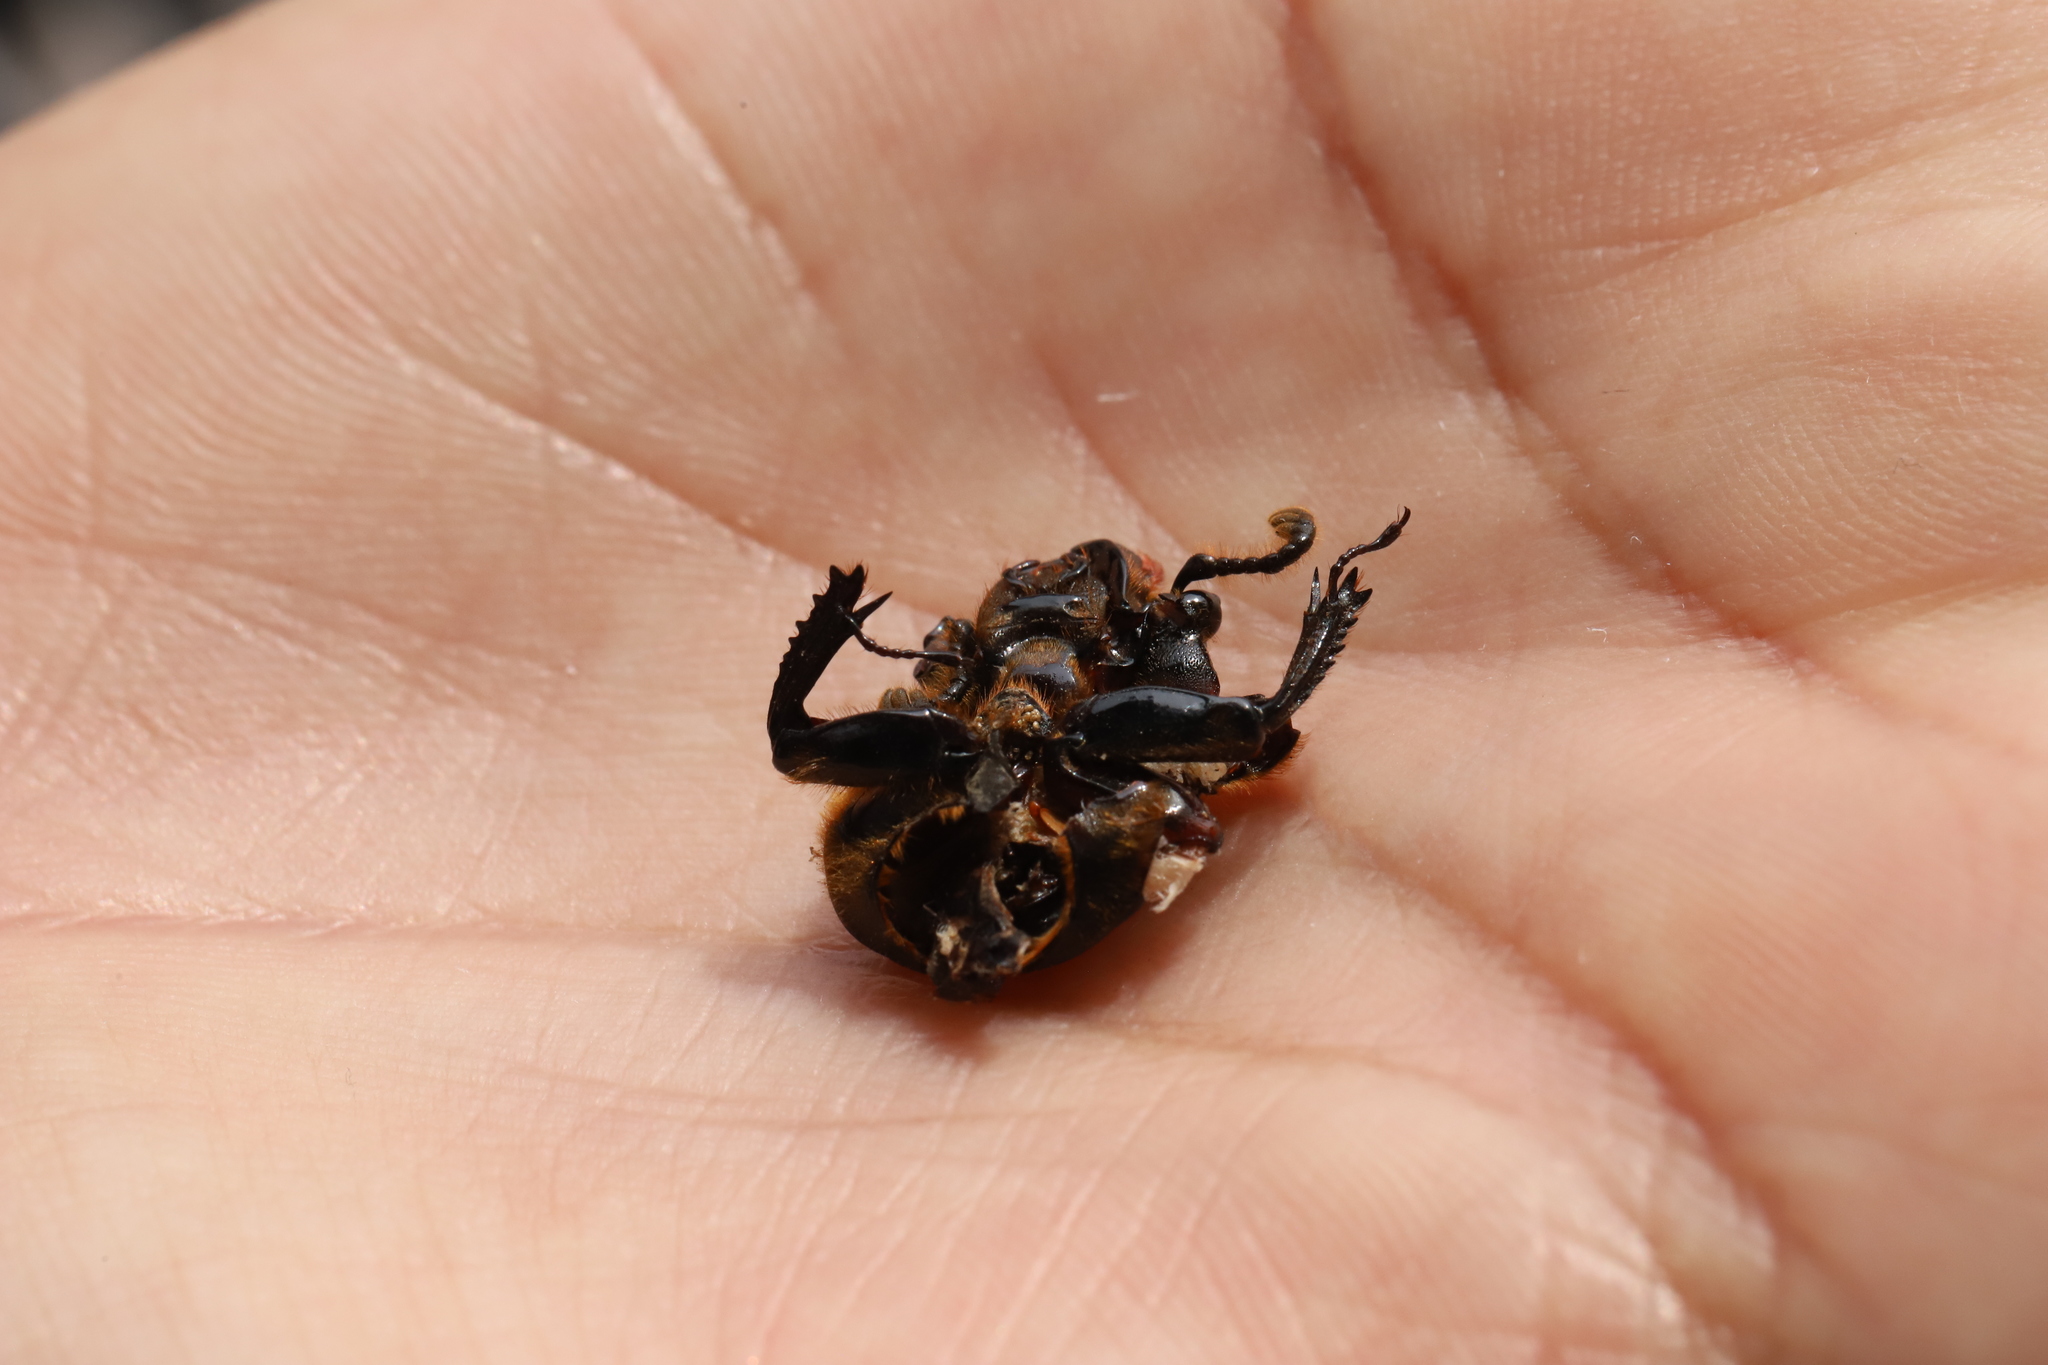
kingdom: Animalia
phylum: Arthropoda
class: Insecta
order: Coleoptera
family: Passalidae
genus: Odontotaenius
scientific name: Odontotaenius disjunctus
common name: Patent leather beetle
